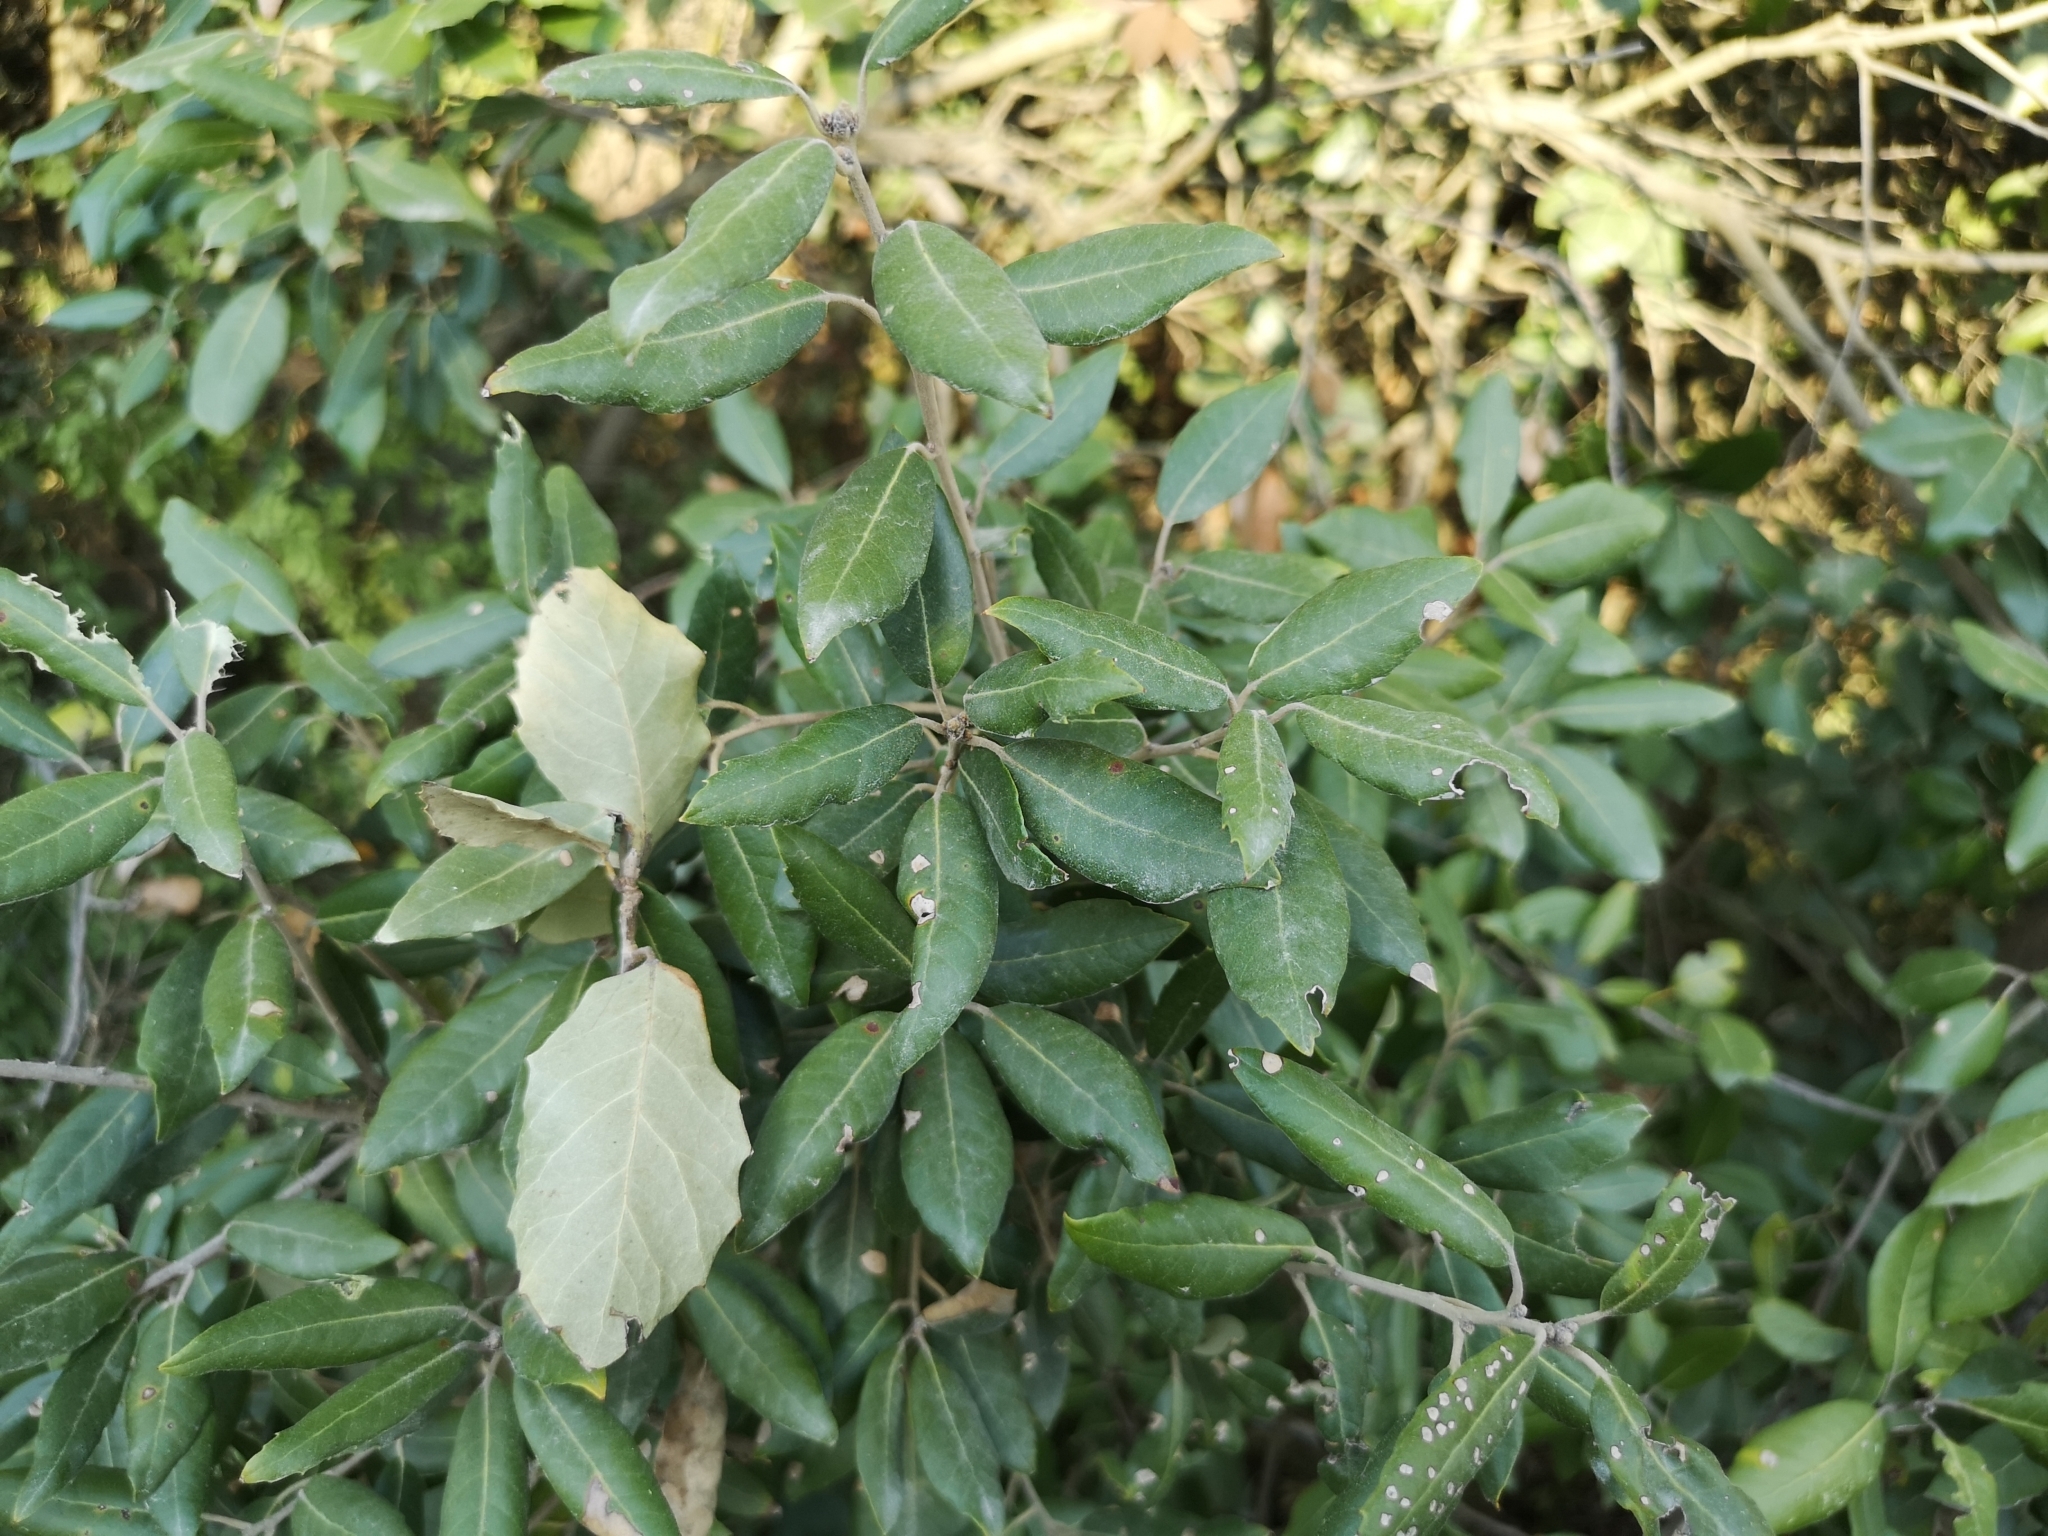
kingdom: Plantae
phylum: Tracheophyta
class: Magnoliopsida
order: Fagales
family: Fagaceae
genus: Quercus
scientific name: Quercus ilex
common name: Evergreen oak
